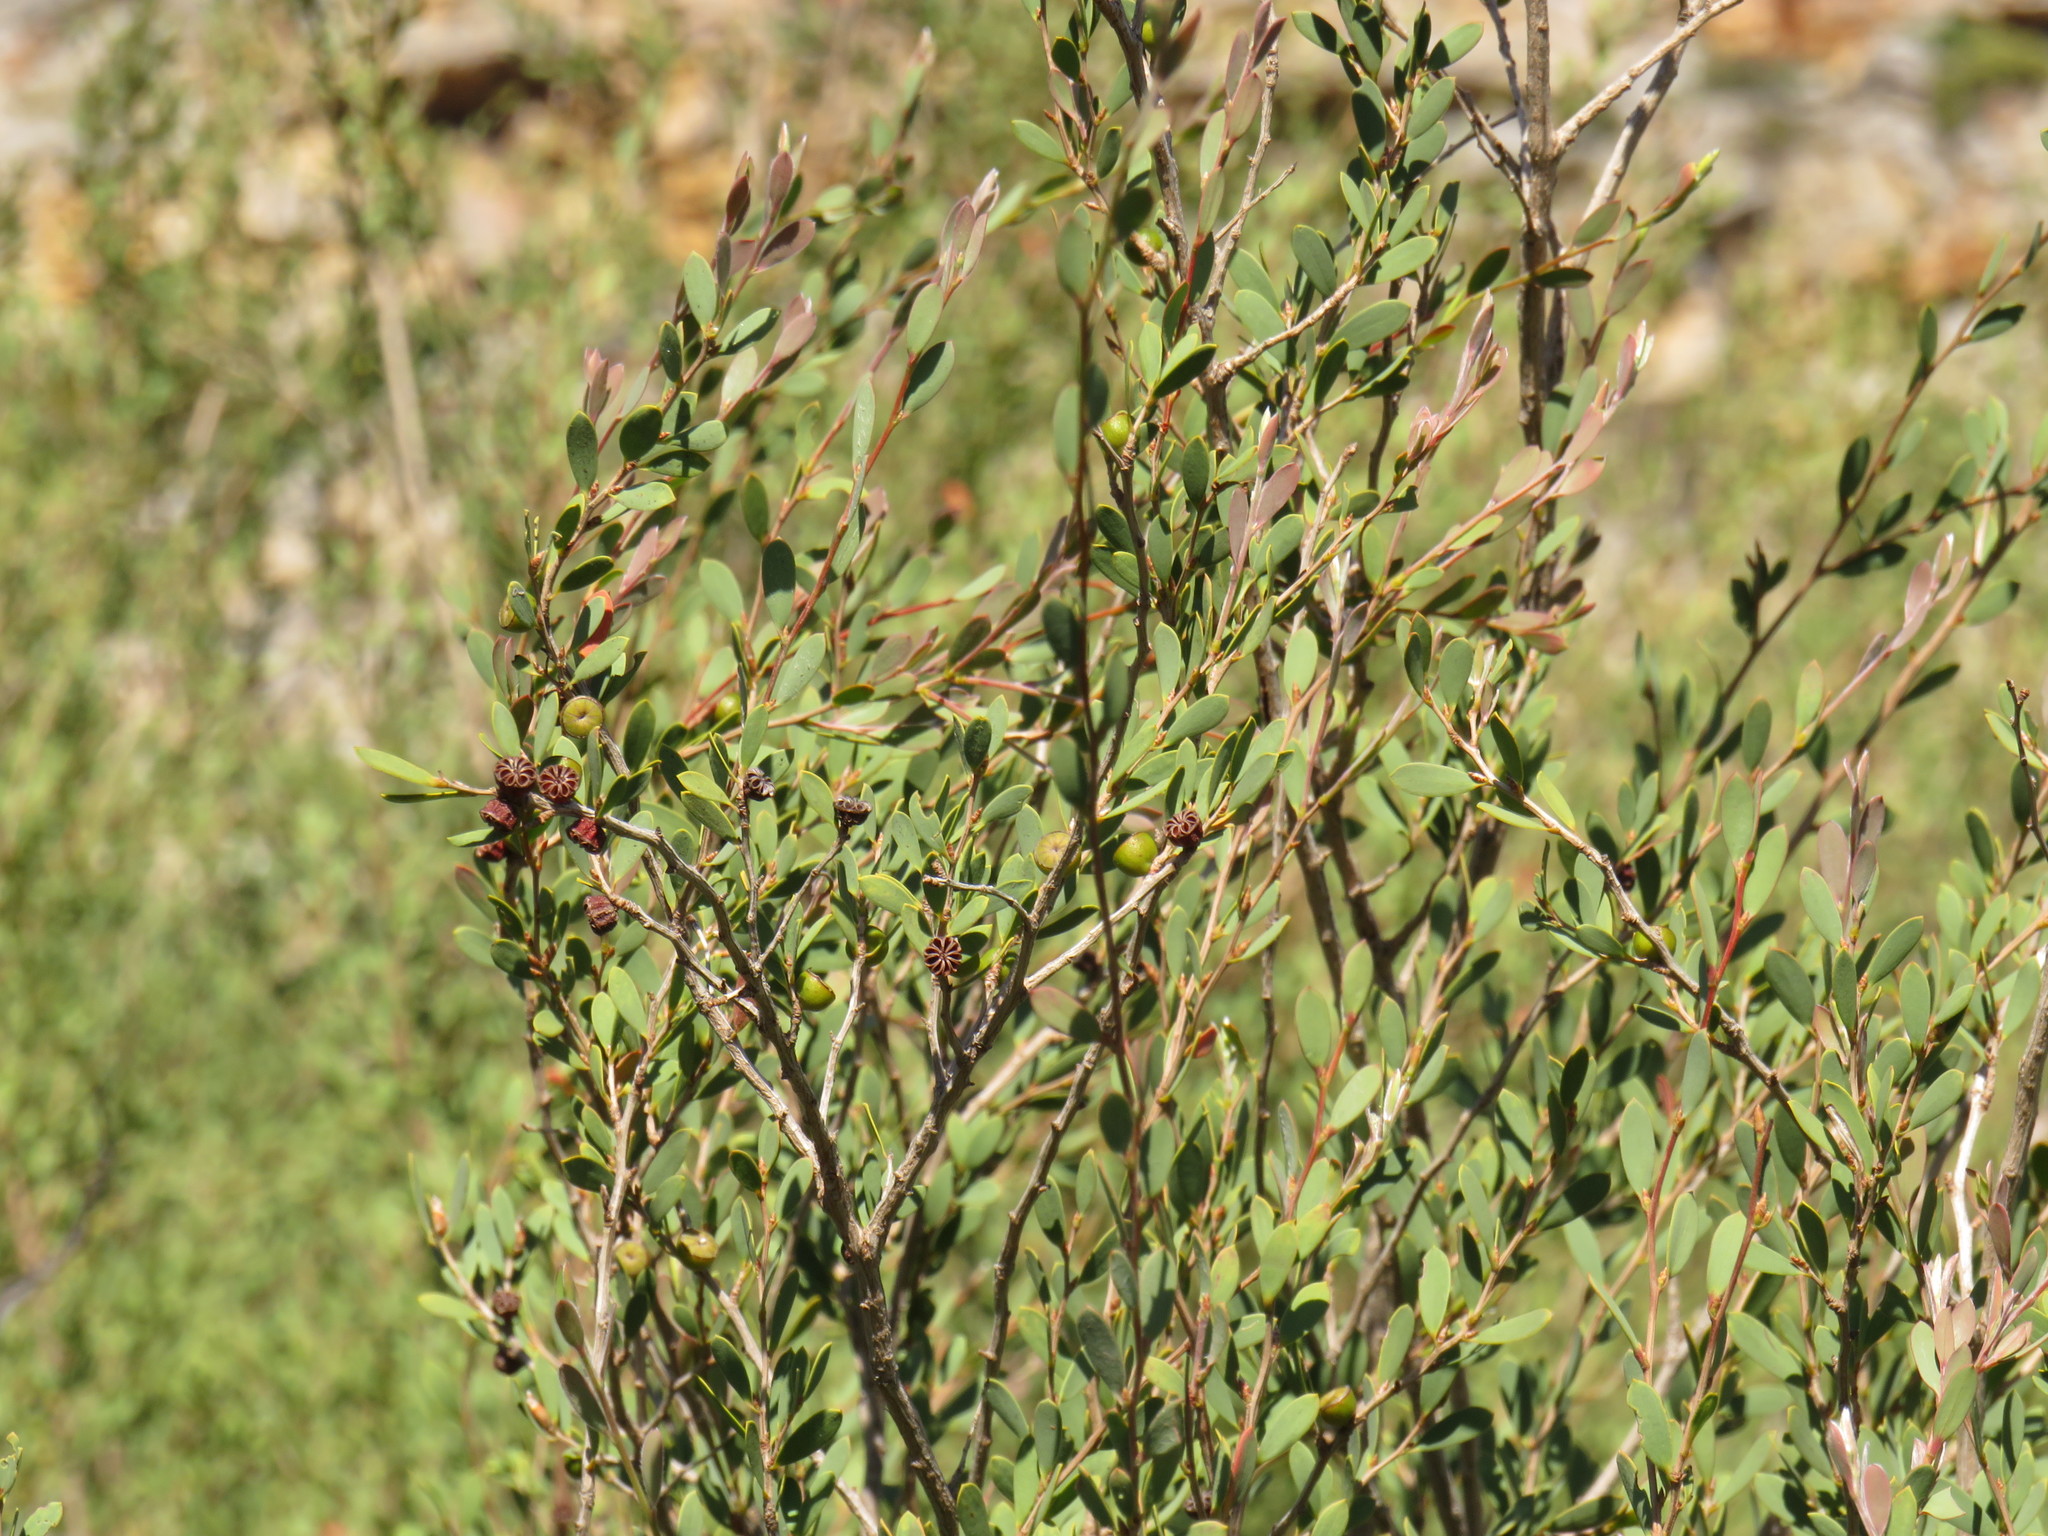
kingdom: Plantae
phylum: Tracheophyta
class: Magnoliopsida
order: Myrtales
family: Myrtaceae
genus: Leptospermum
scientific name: Leptospermum laevigatum
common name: Australian teatree
